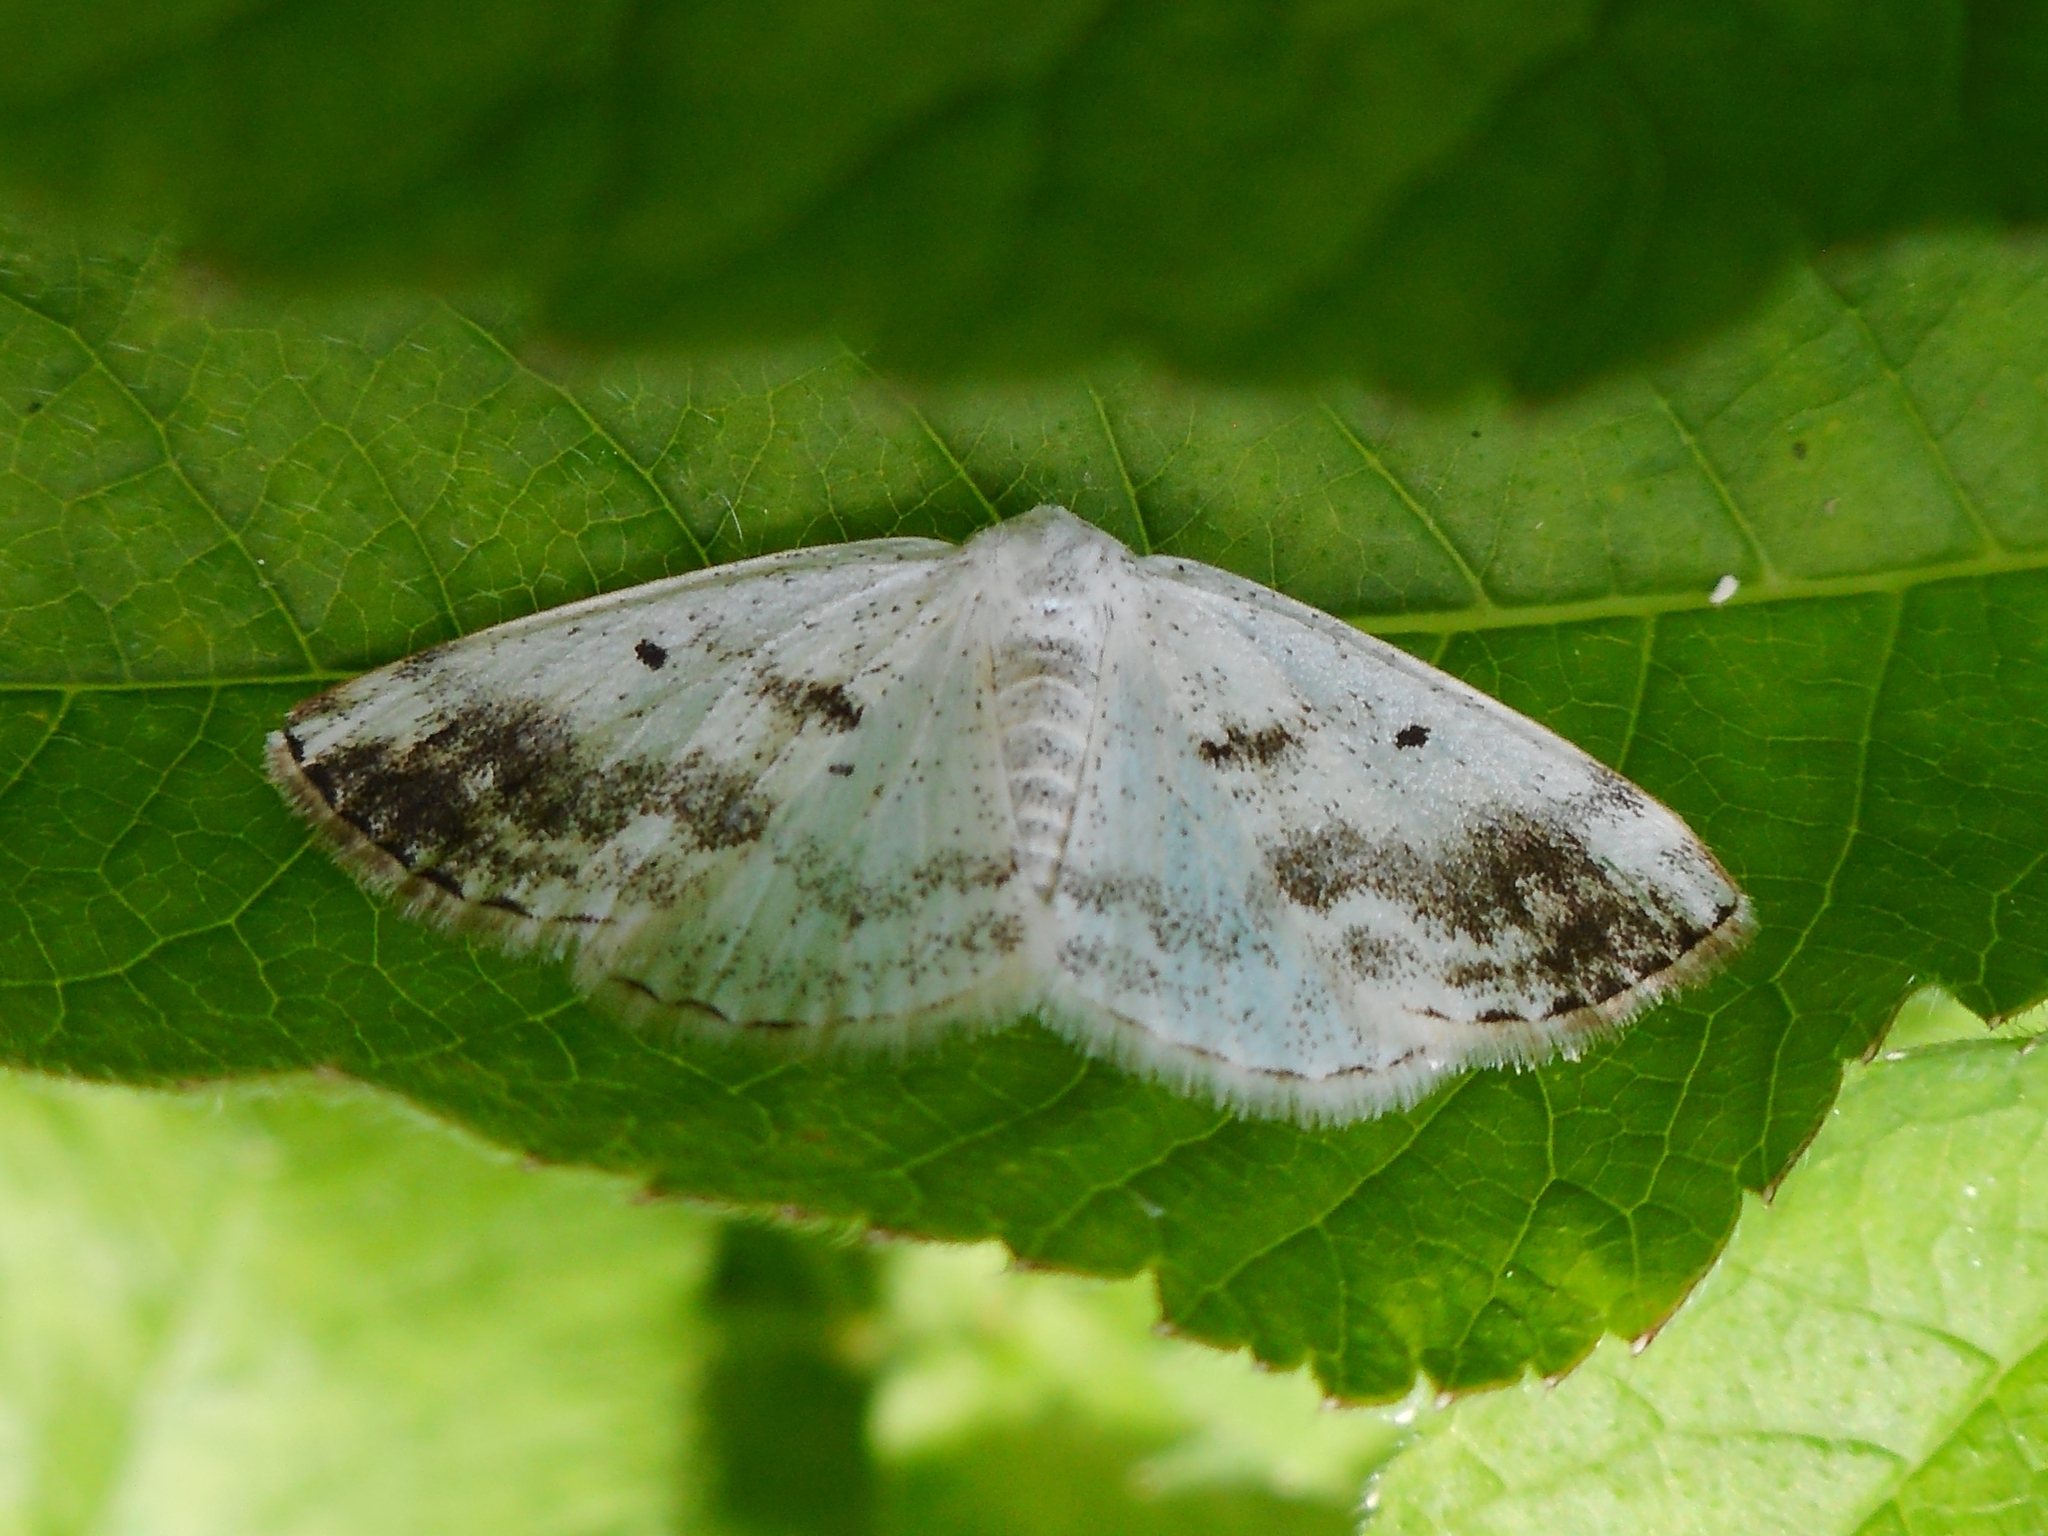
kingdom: Animalia
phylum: Arthropoda
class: Insecta
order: Lepidoptera
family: Geometridae
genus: Lomographa
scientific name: Lomographa temerata
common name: Clouded silver
